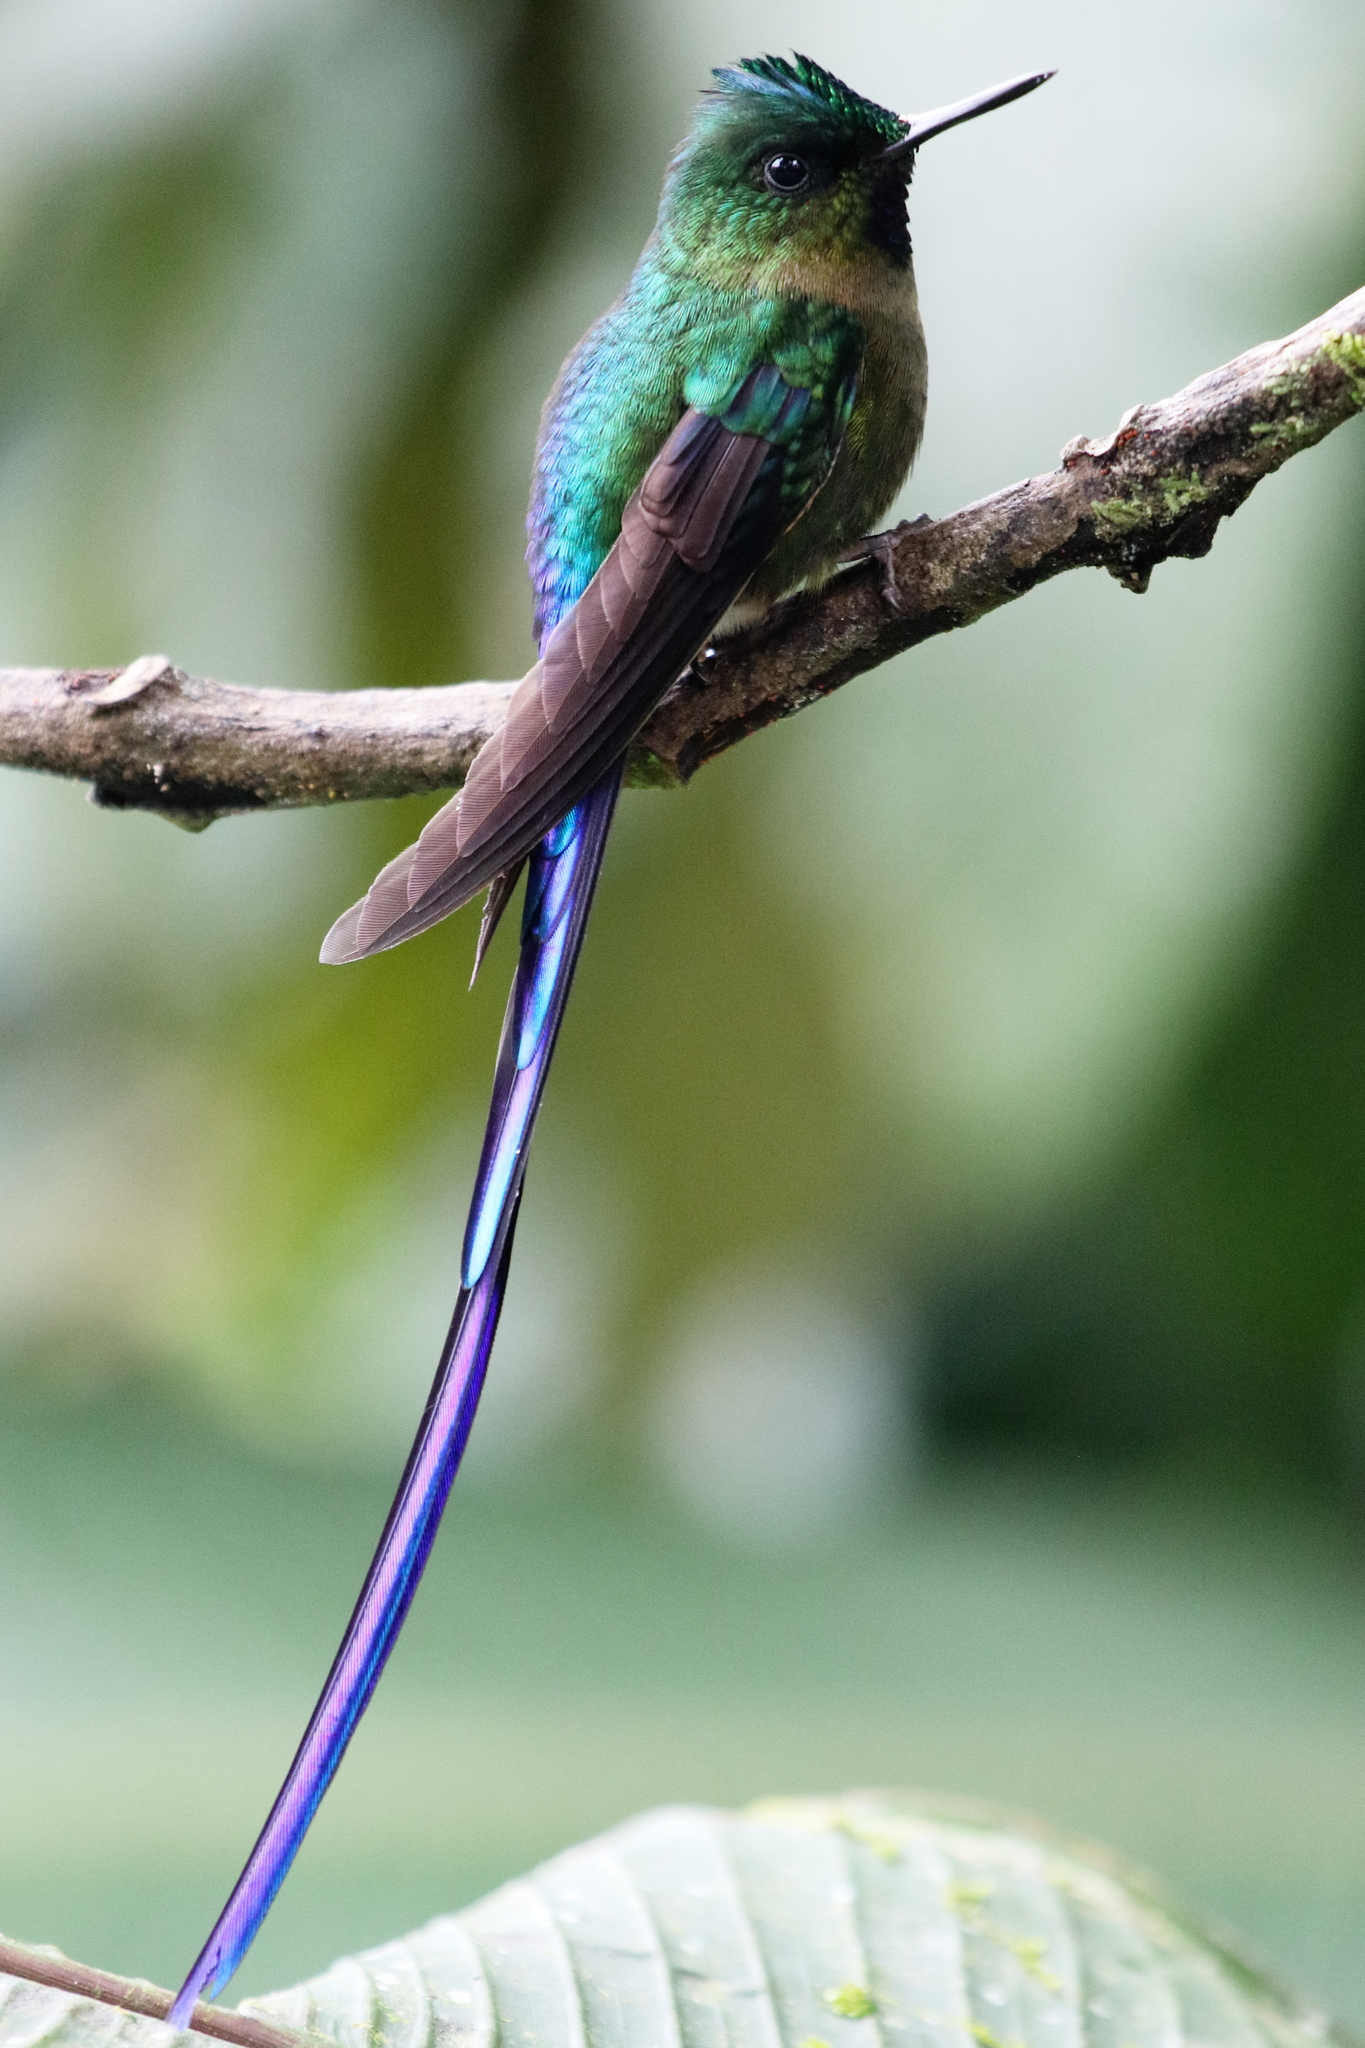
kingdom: Animalia
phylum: Chordata
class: Aves
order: Apodiformes
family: Trochilidae
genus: Aglaiocercus
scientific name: Aglaiocercus coelestis
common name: Violet-tailed sylph
